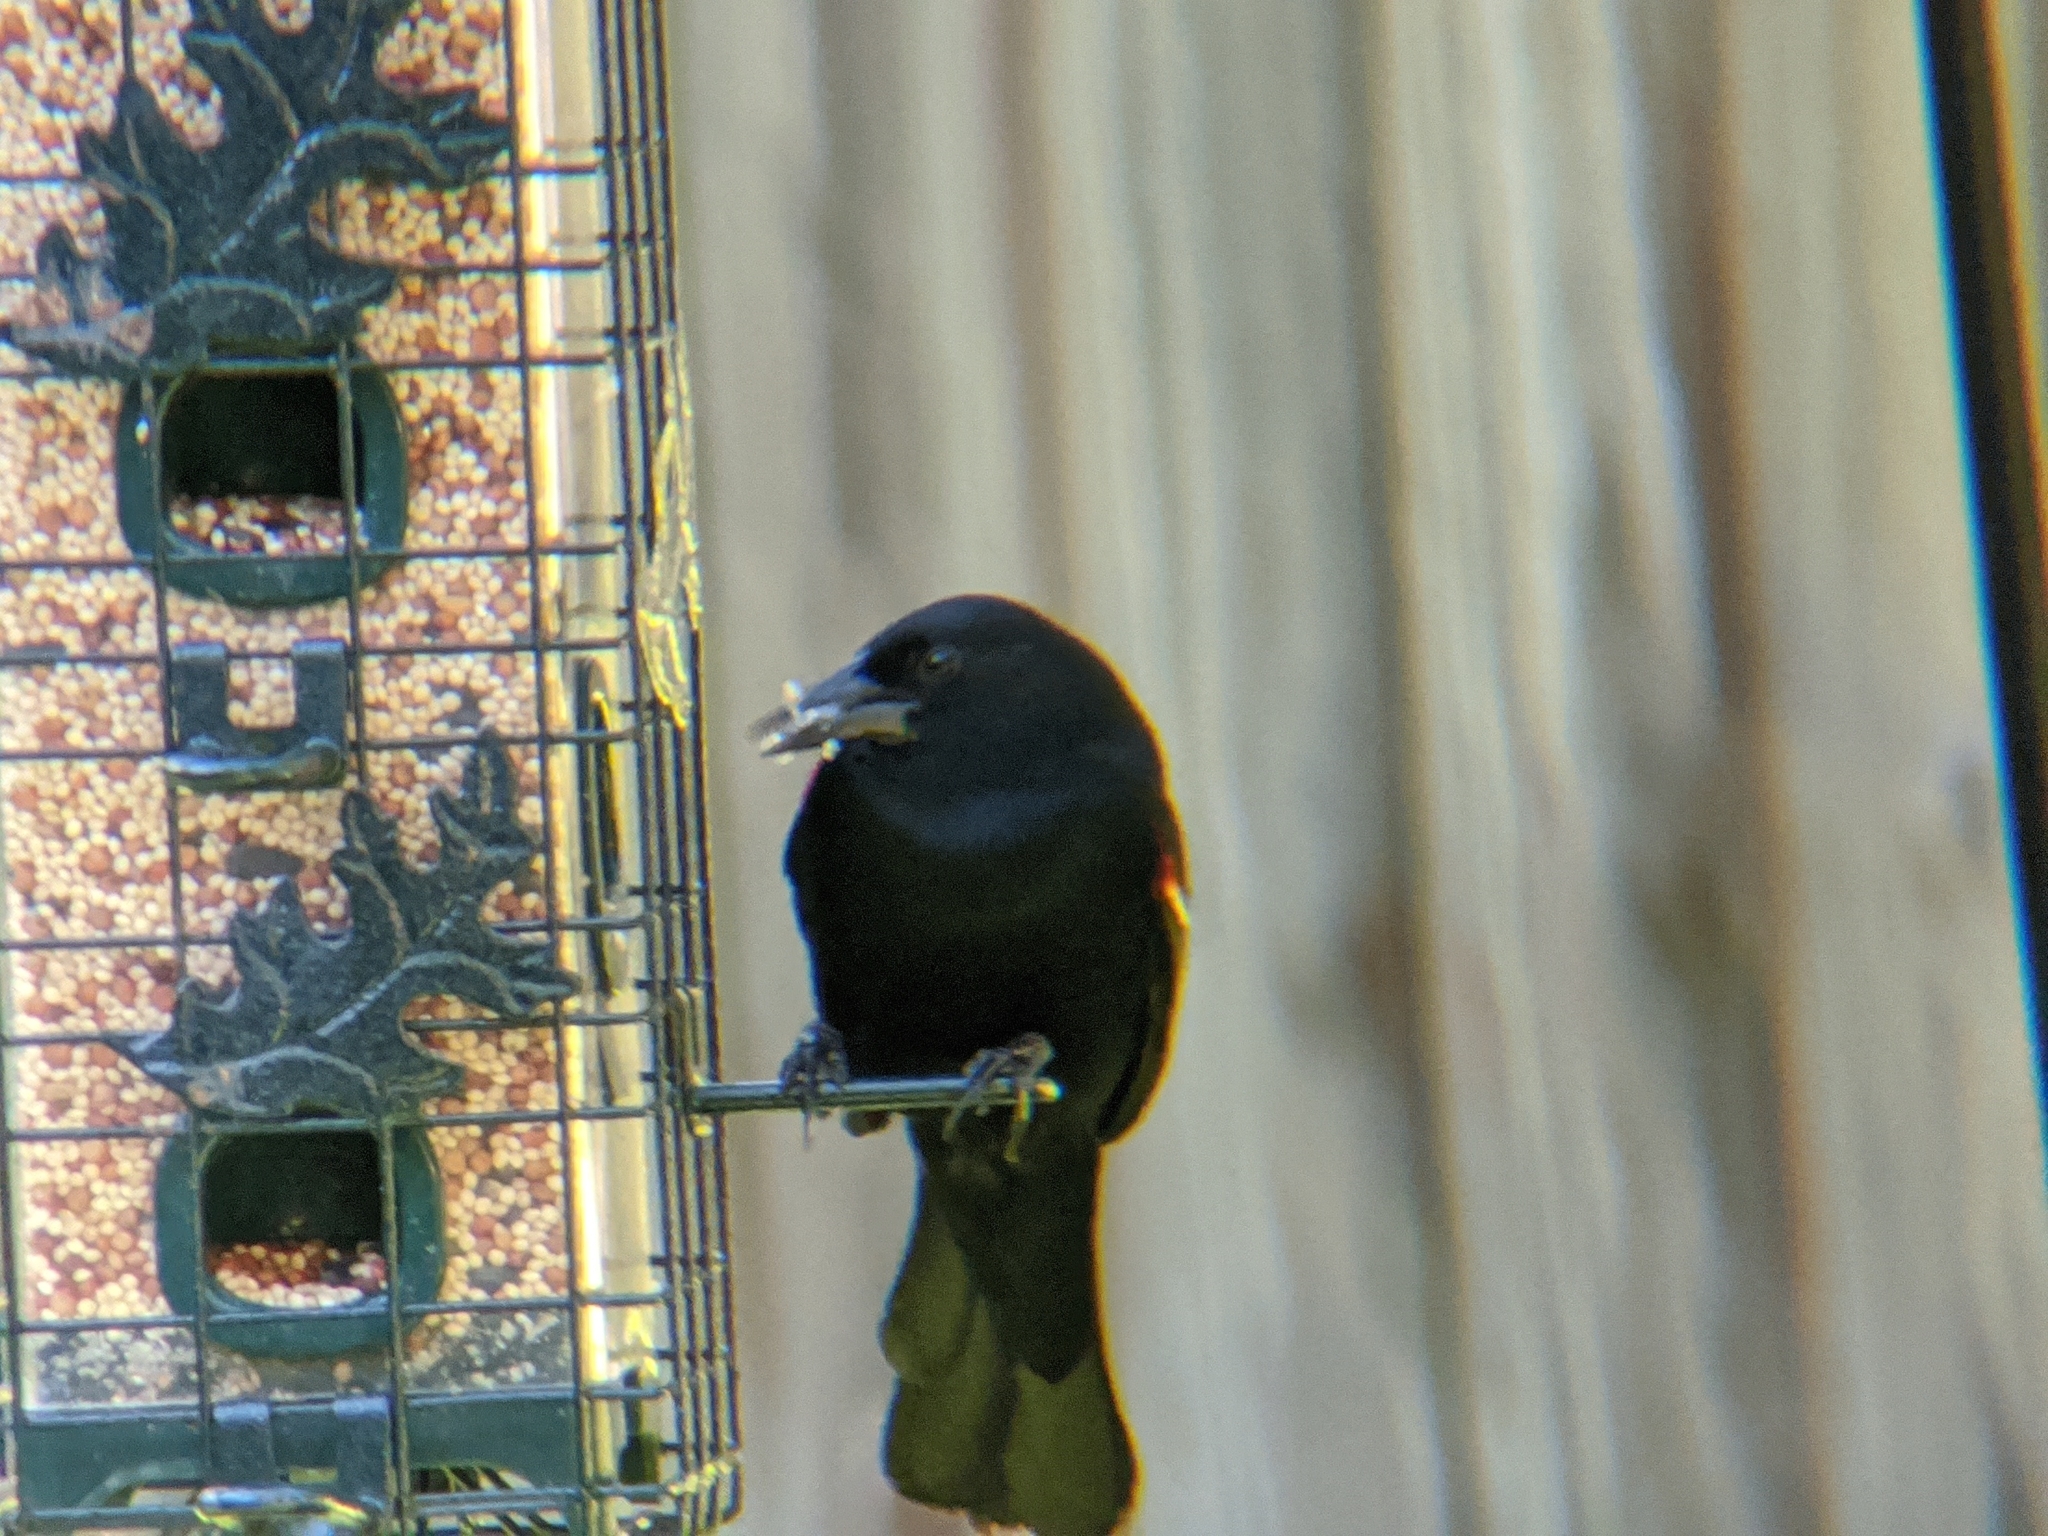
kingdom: Animalia
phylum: Chordata
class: Aves
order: Passeriformes
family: Icteridae
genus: Agelaius
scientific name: Agelaius phoeniceus
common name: Red-winged blackbird
